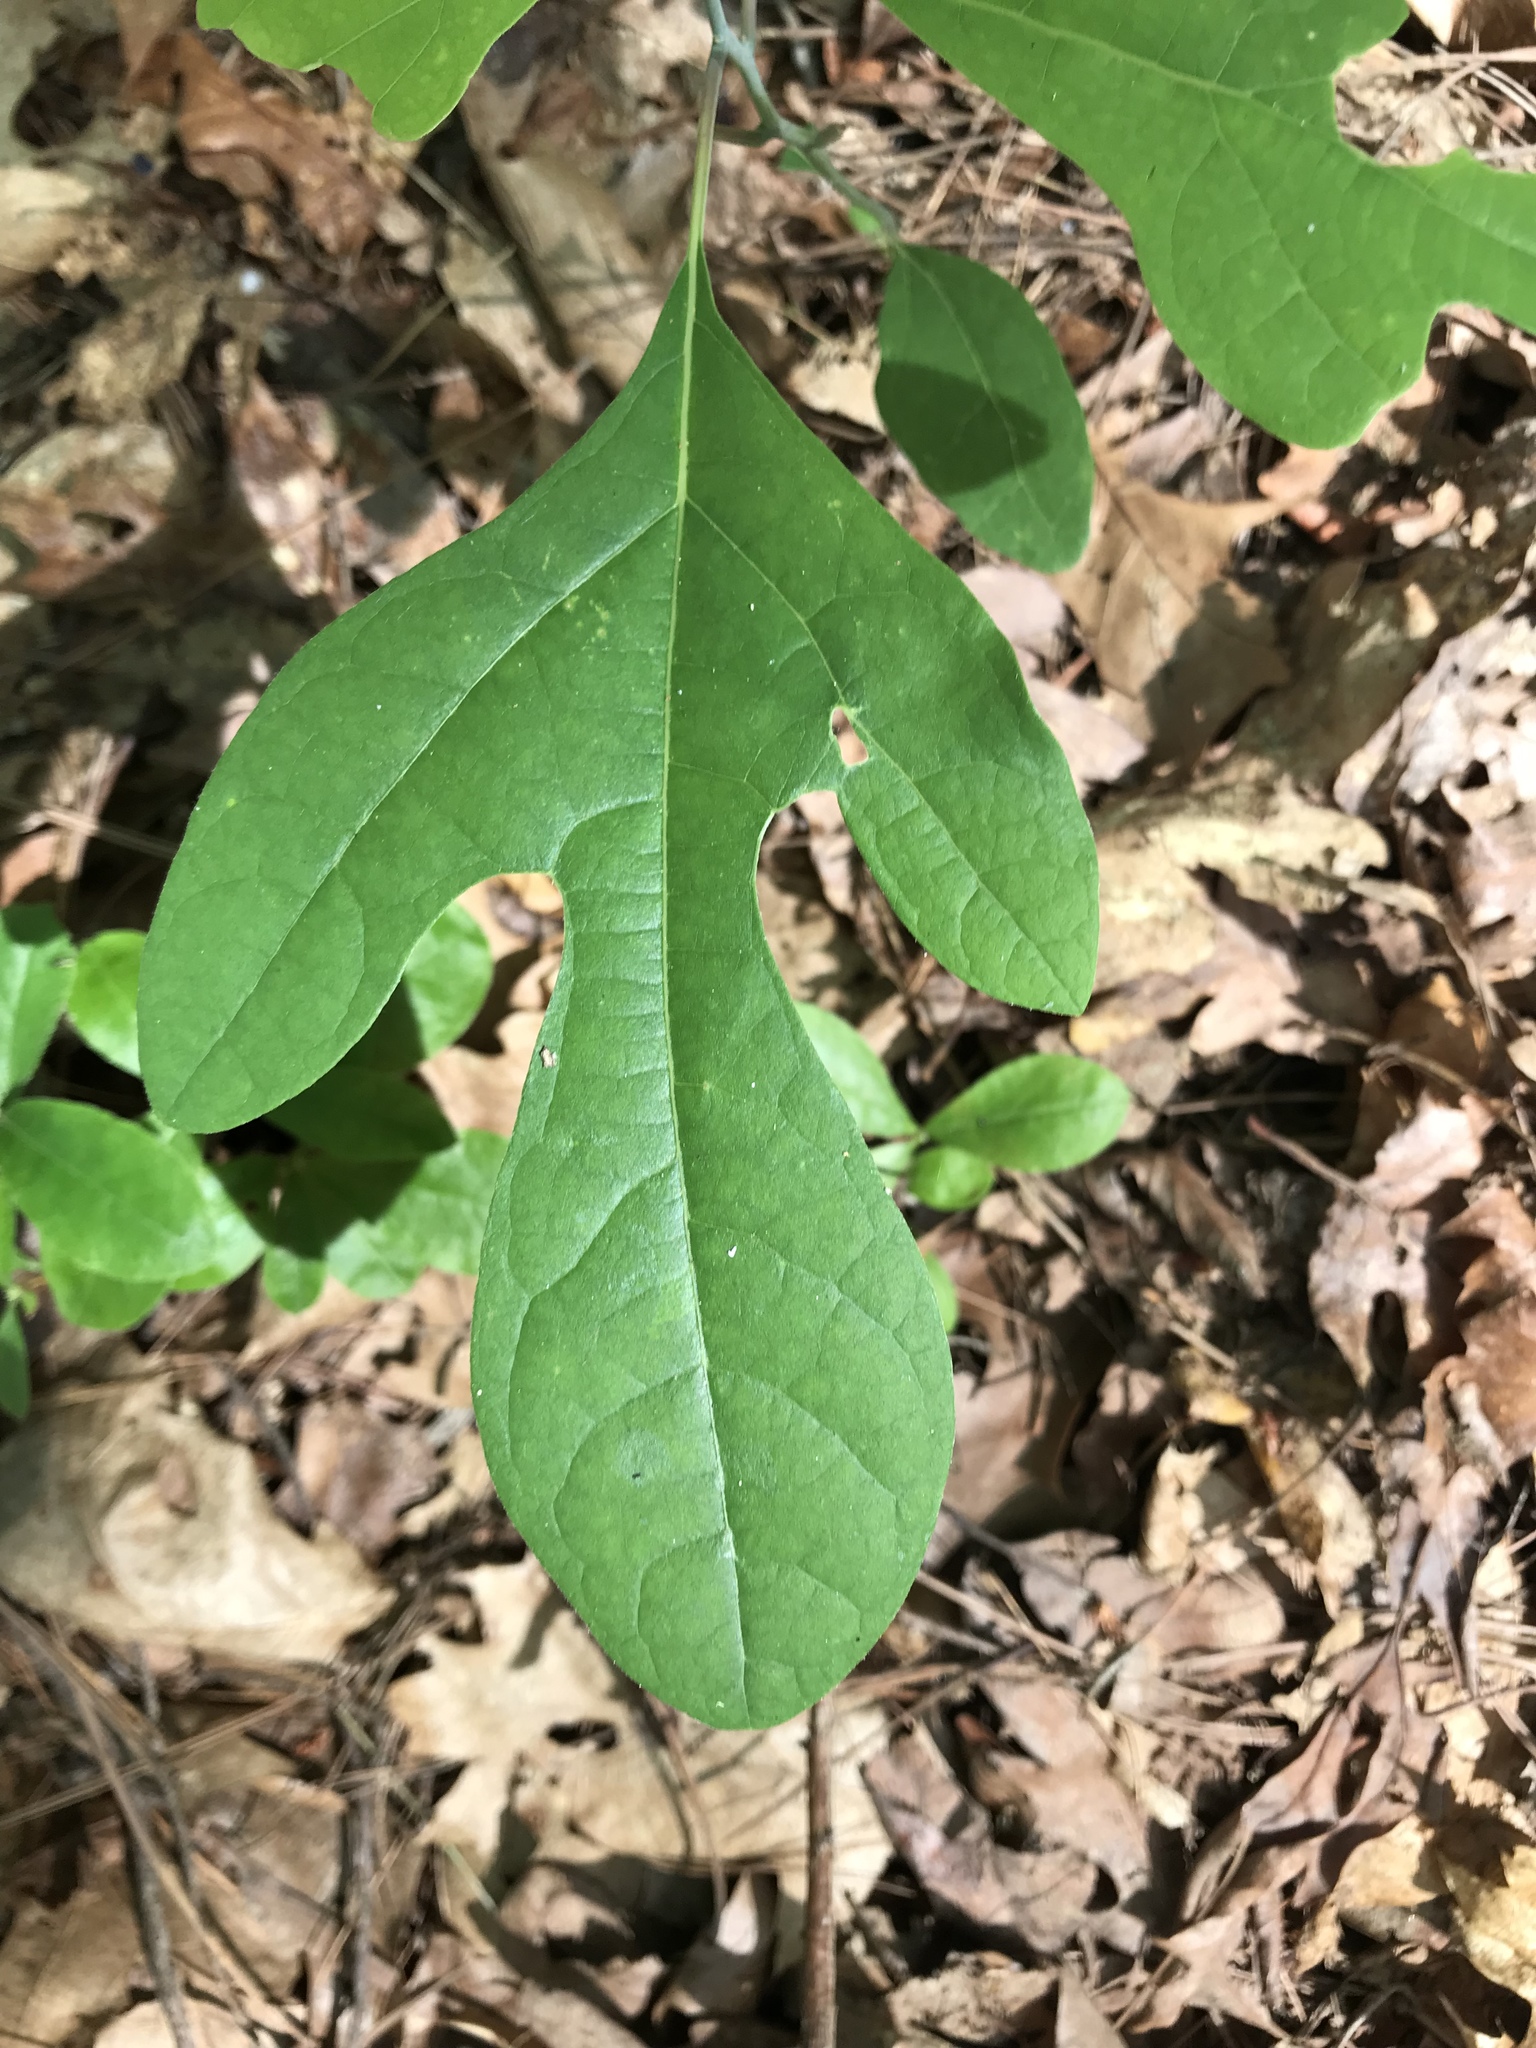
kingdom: Plantae
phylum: Tracheophyta
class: Magnoliopsida
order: Laurales
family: Lauraceae
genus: Sassafras
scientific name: Sassafras albidum
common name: Sassafras
